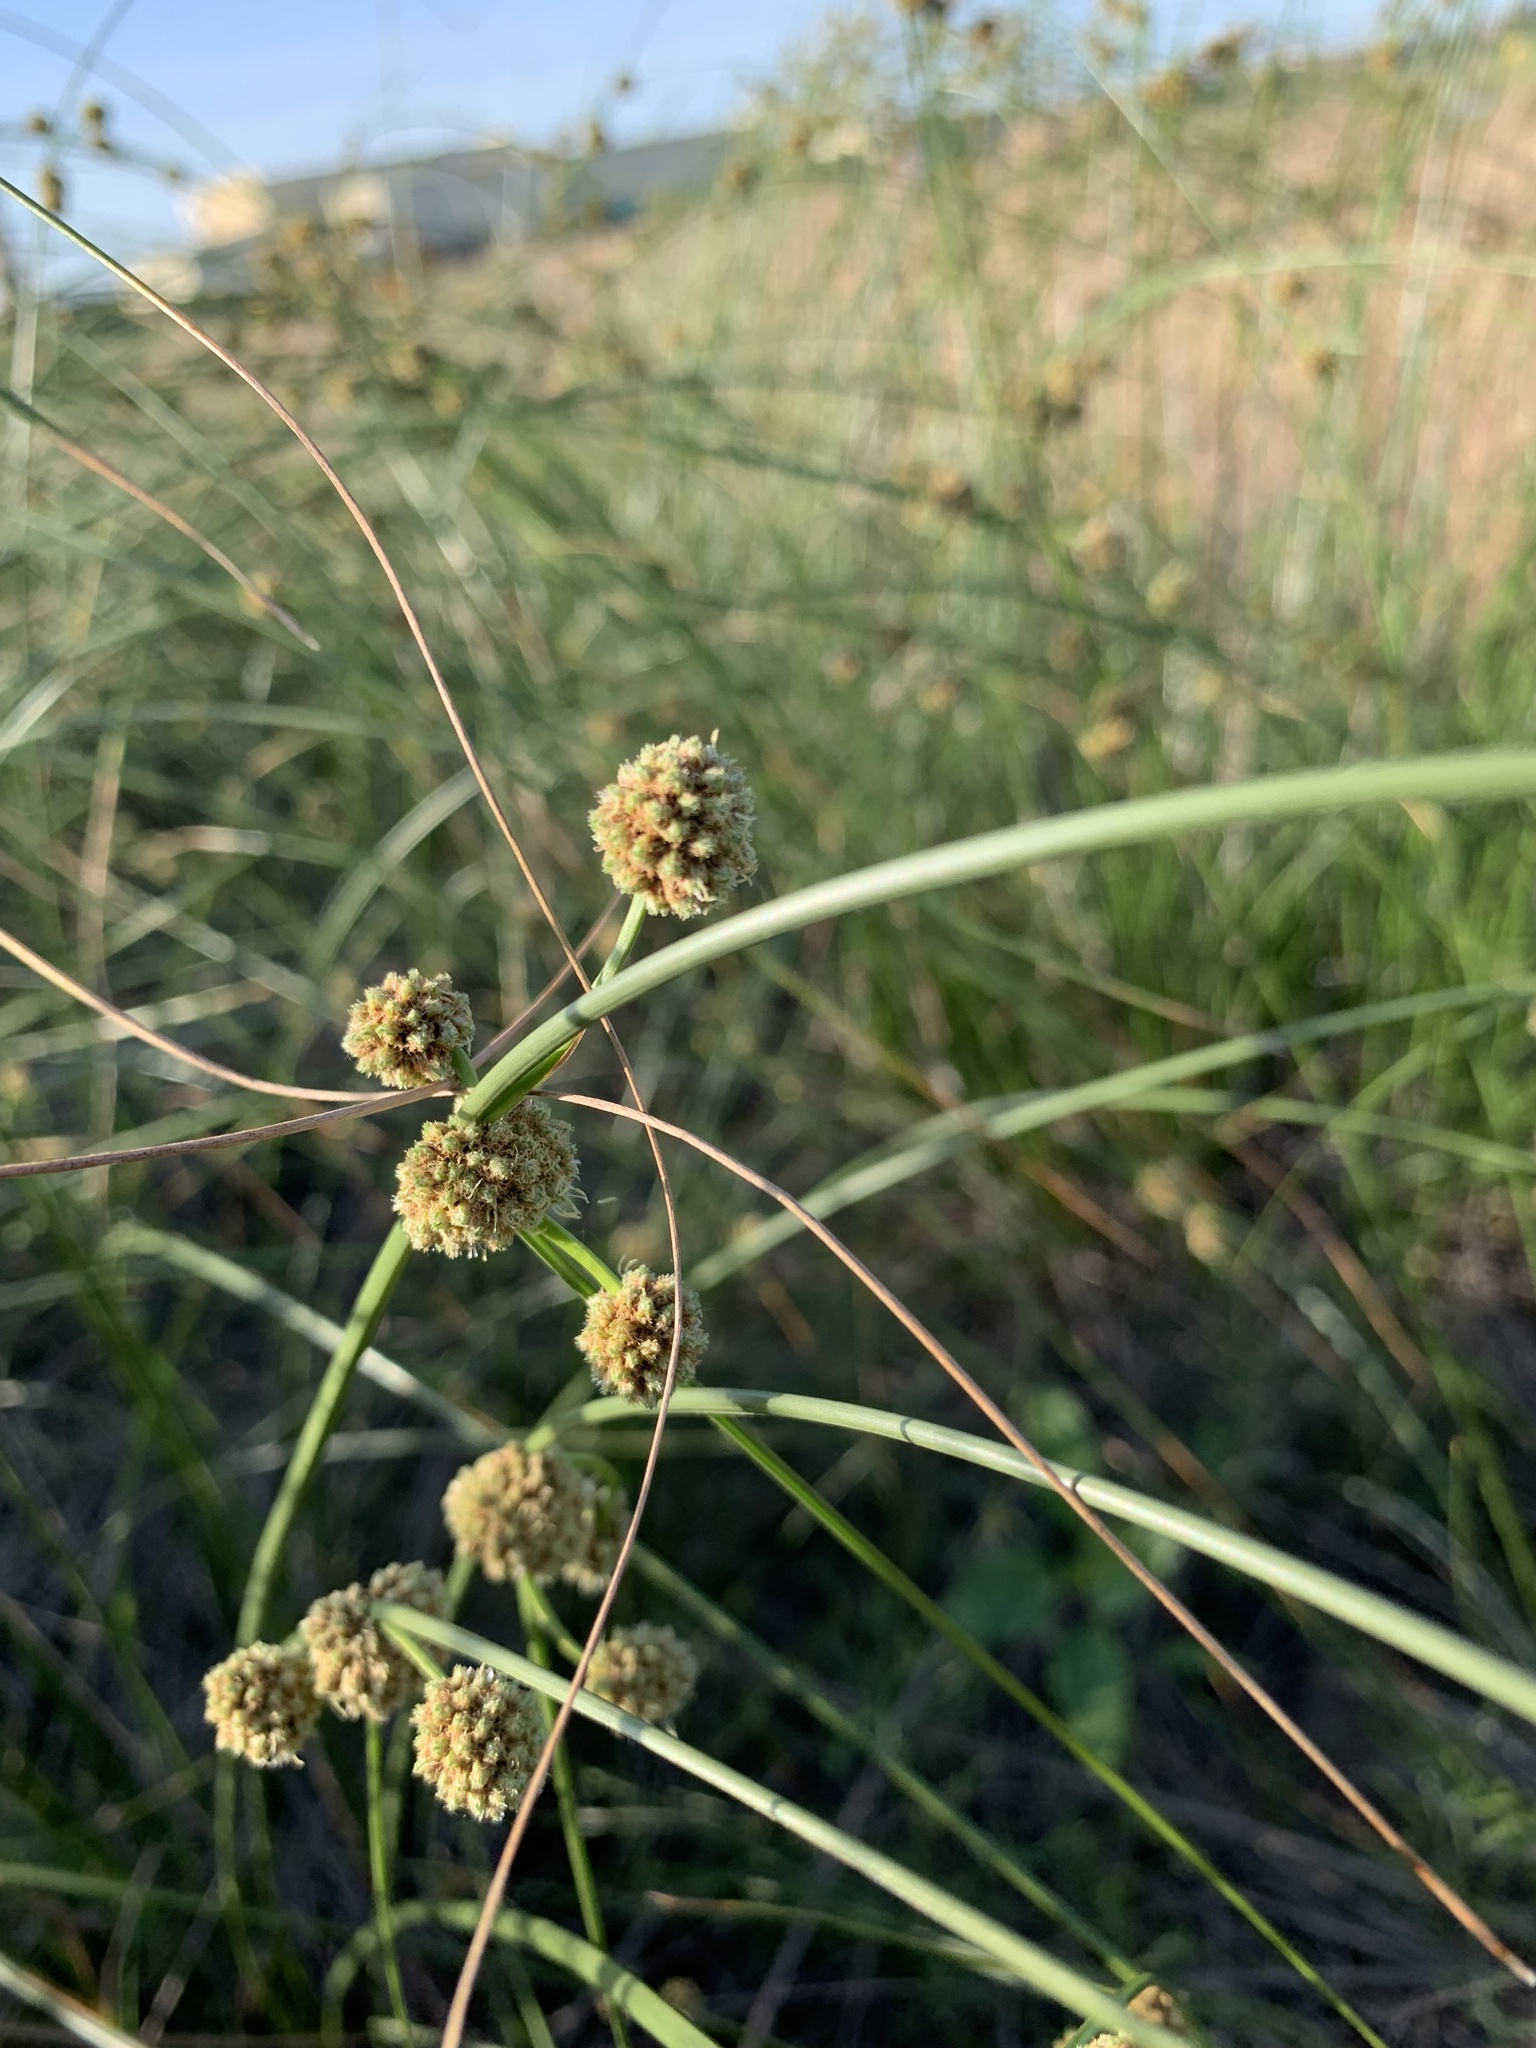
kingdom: Plantae
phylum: Tracheophyta
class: Liliopsida
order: Poales
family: Cyperaceae
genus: Scirpoides
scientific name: Scirpoides holoschoenus
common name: Round-headed club-rush
